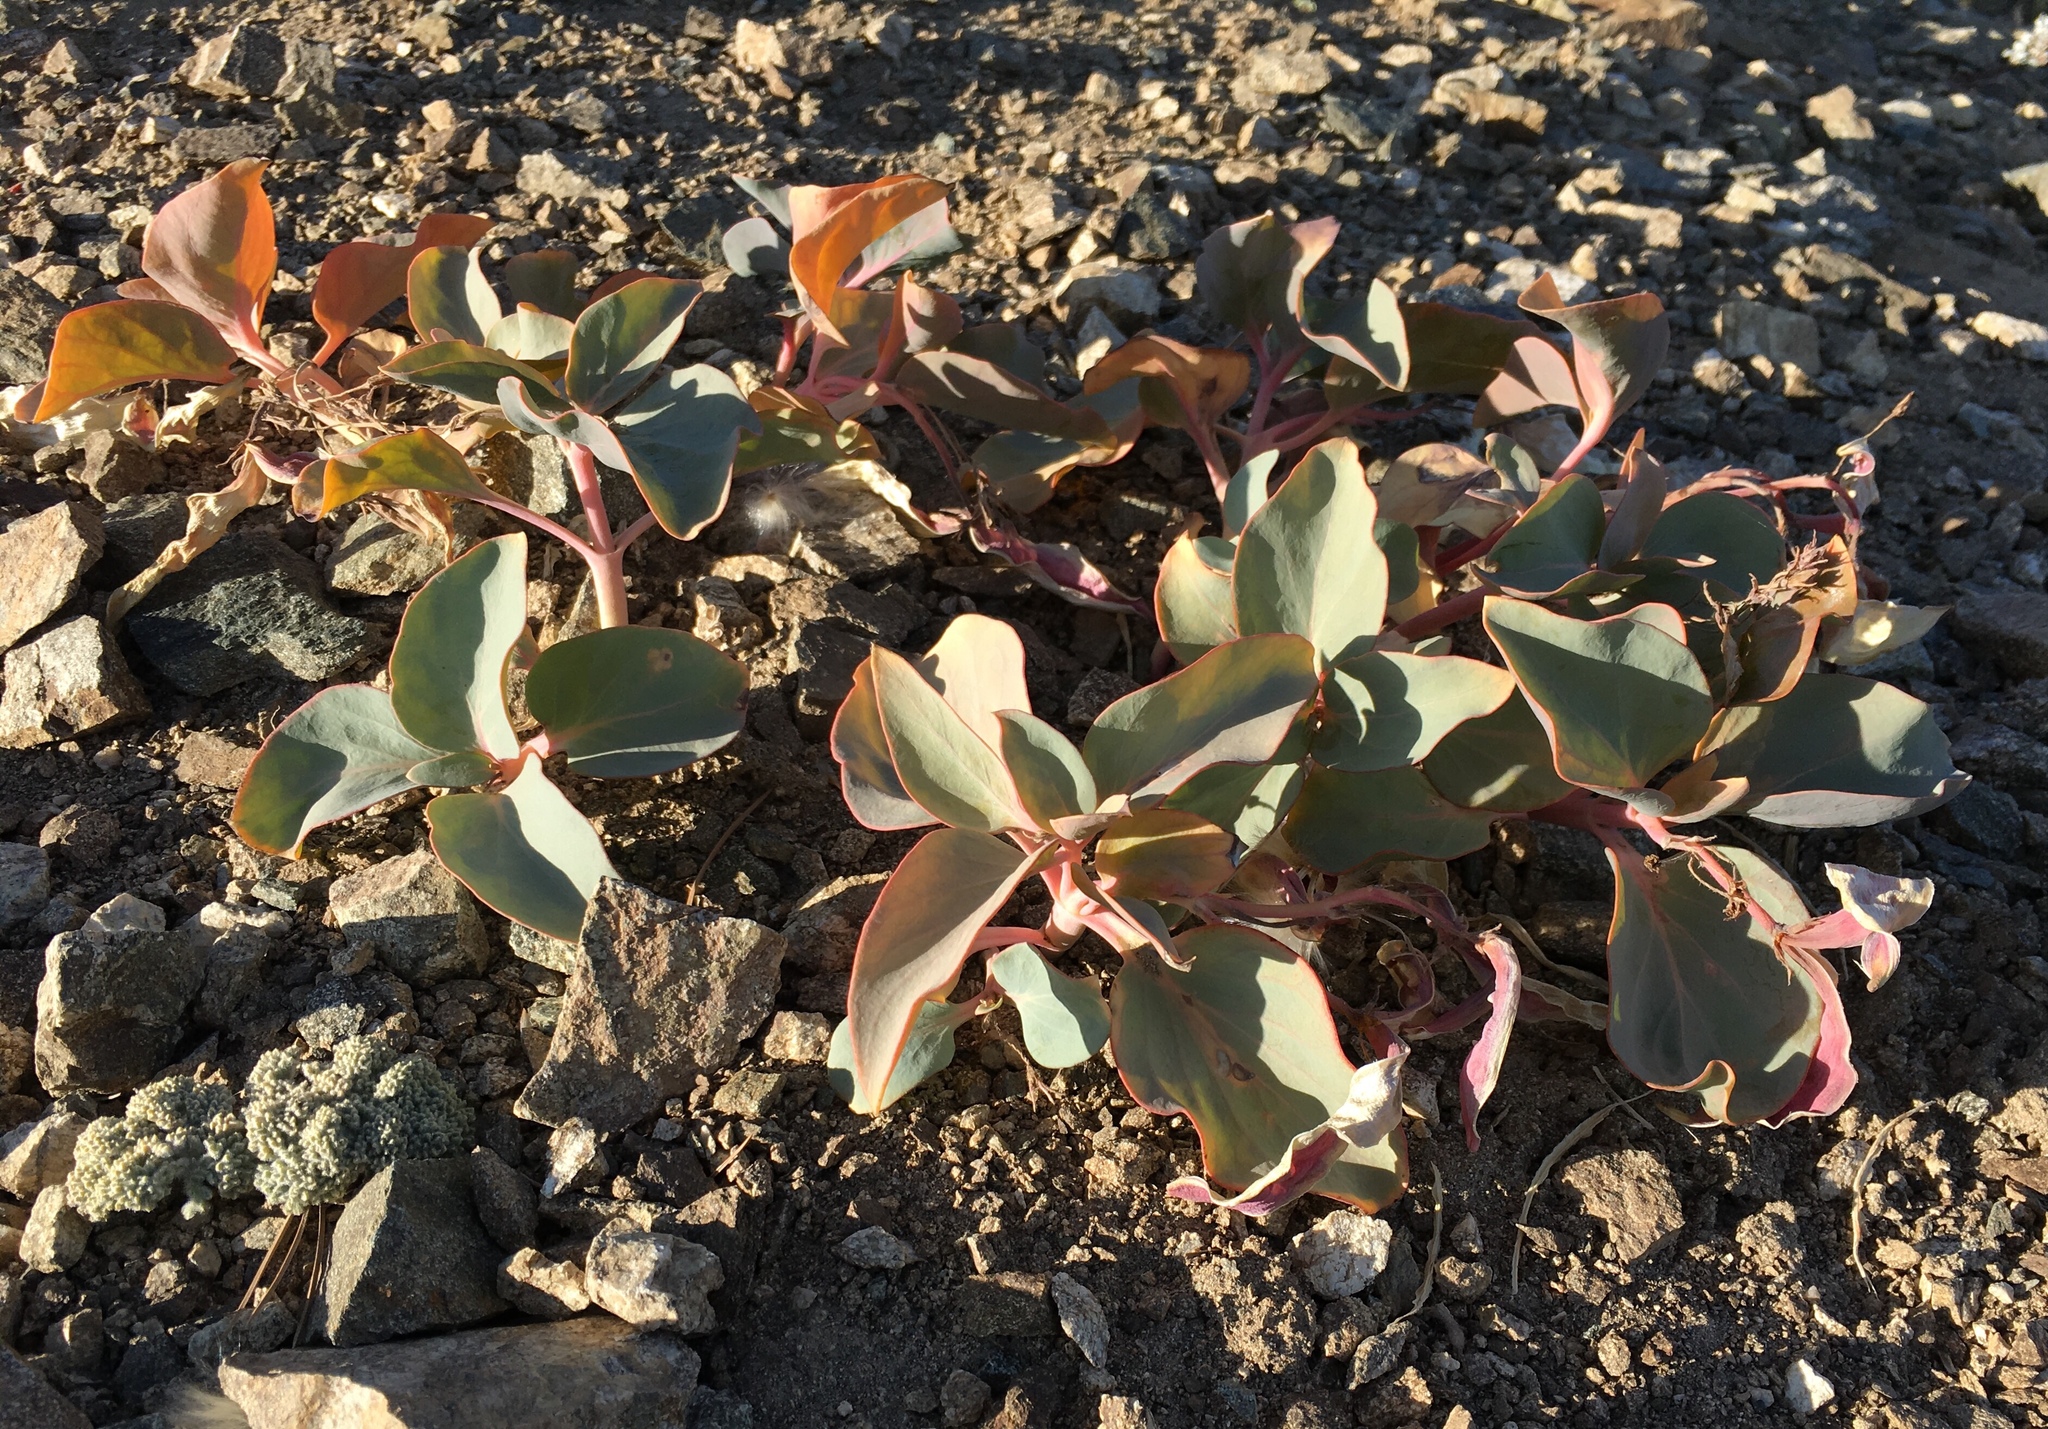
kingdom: Plantae
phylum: Tracheophyta
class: Magnoliopsida
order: Gentianales
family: Apocynaceae
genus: Cycladenia
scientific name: Cycladenia humilis
